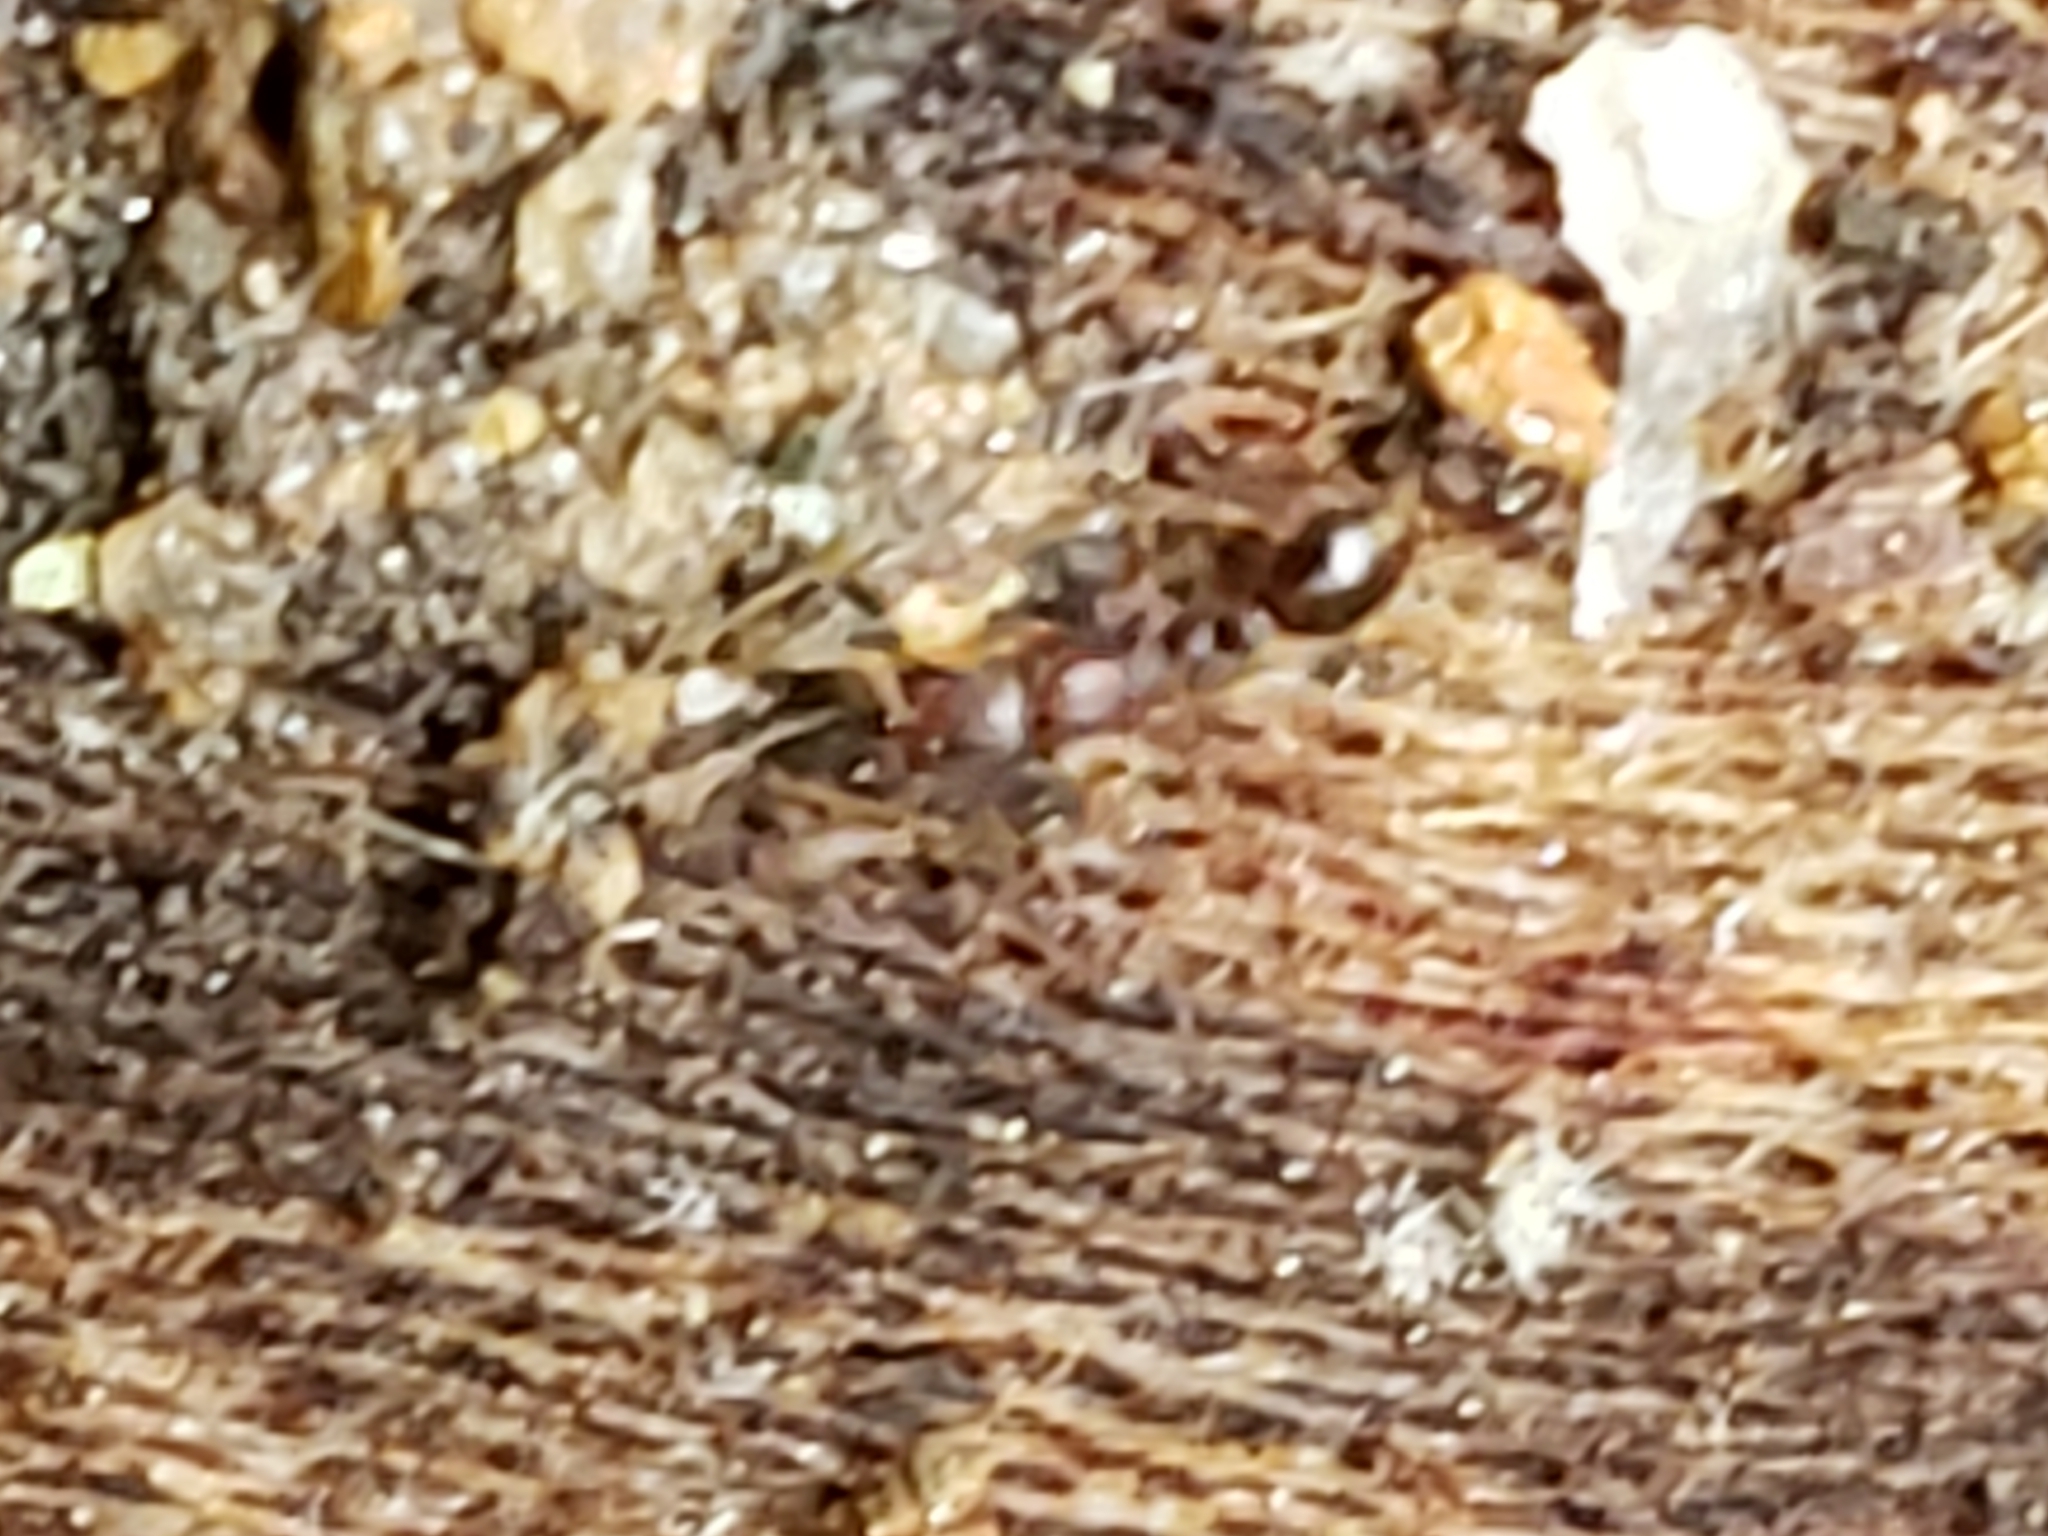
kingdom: Animalia
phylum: Arthropoda
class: Insecta
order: Hymenoptera
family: Formicidae
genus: Vollenhovia
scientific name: Vollenhovia emeryi
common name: Ant
